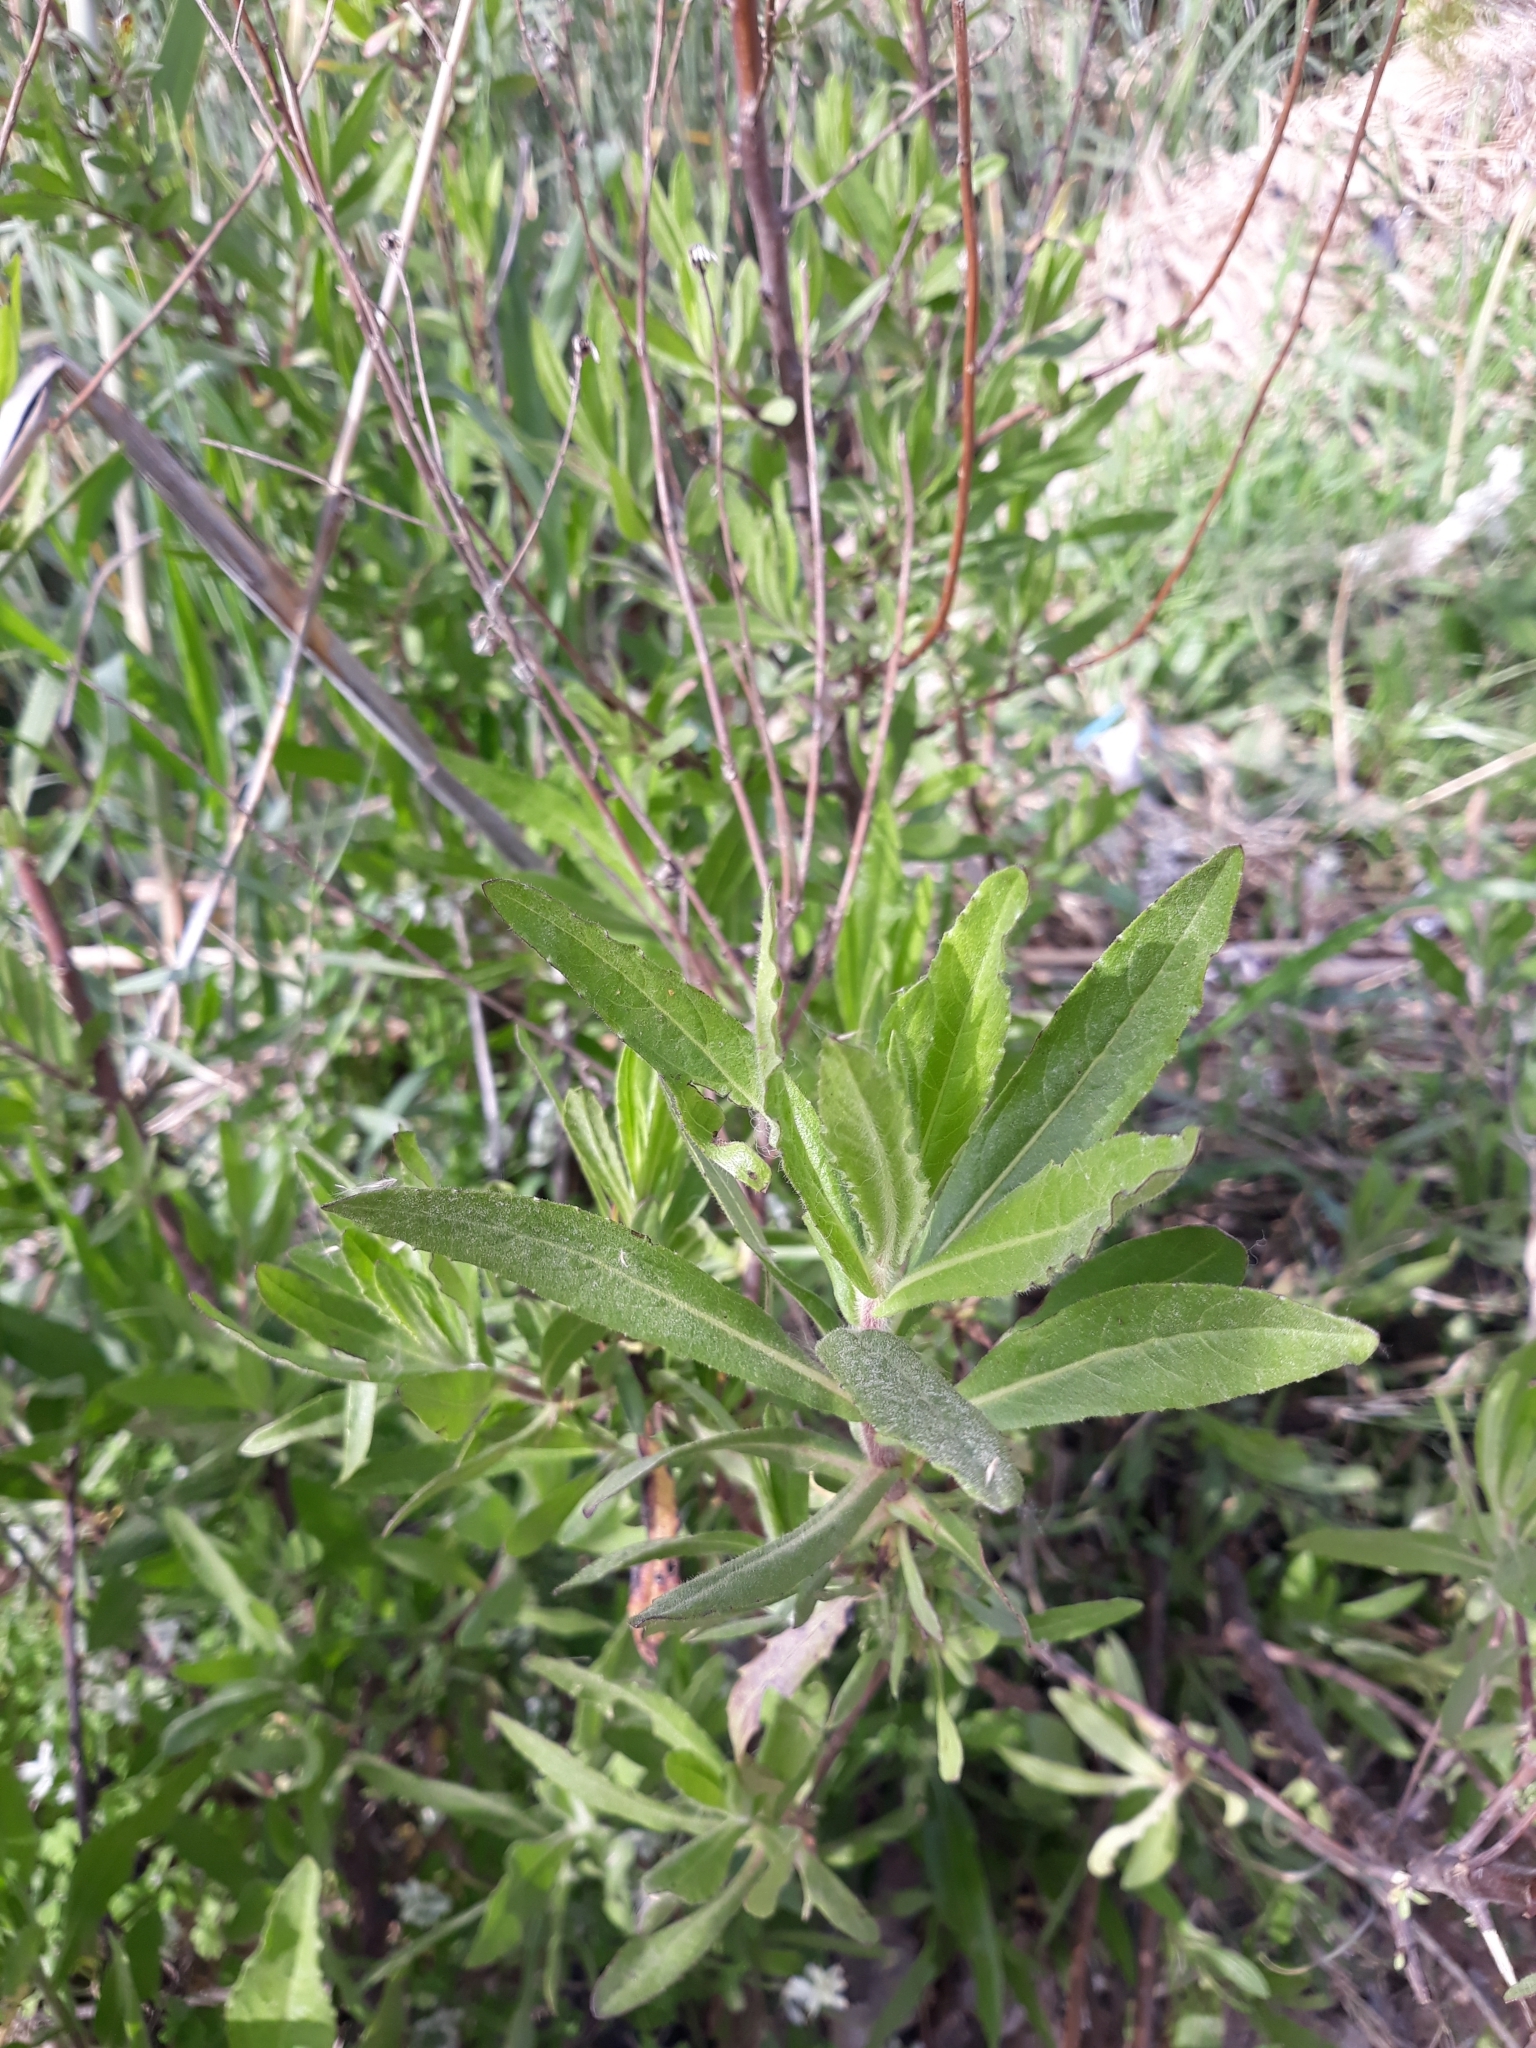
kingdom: Plantae
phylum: Tracheophyta
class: Magnoliopsida
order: Asterales
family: Asteraceae
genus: Dittrichia
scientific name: Dittrichia viscosa
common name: Woody fleabane
